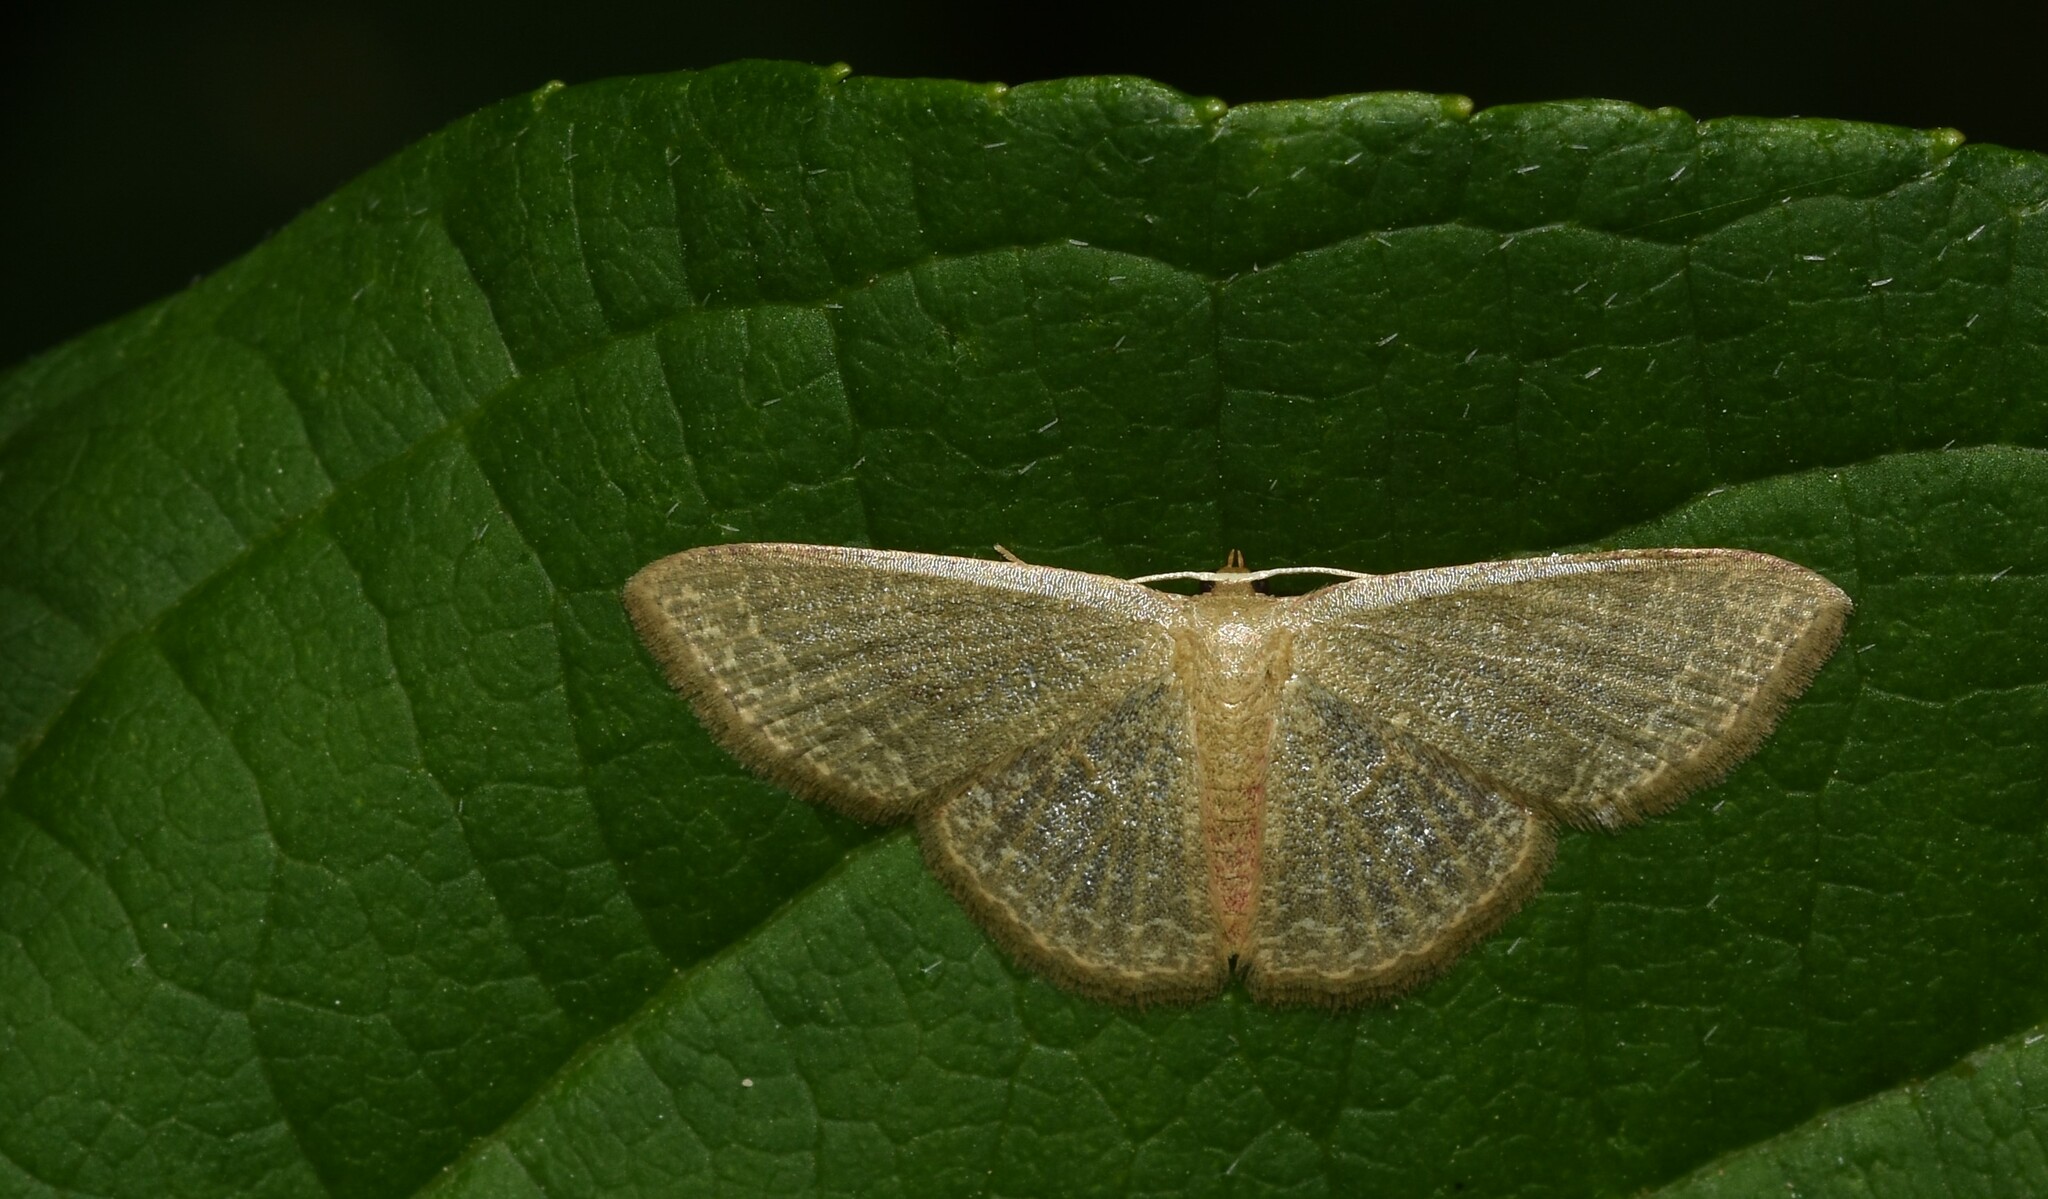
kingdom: Animalia
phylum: Arthropoda
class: Insecta
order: Lepidoptera
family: Geometridae
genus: Pleuroprucha
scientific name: Pleuroprucha insulsaria
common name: Common tan wave
